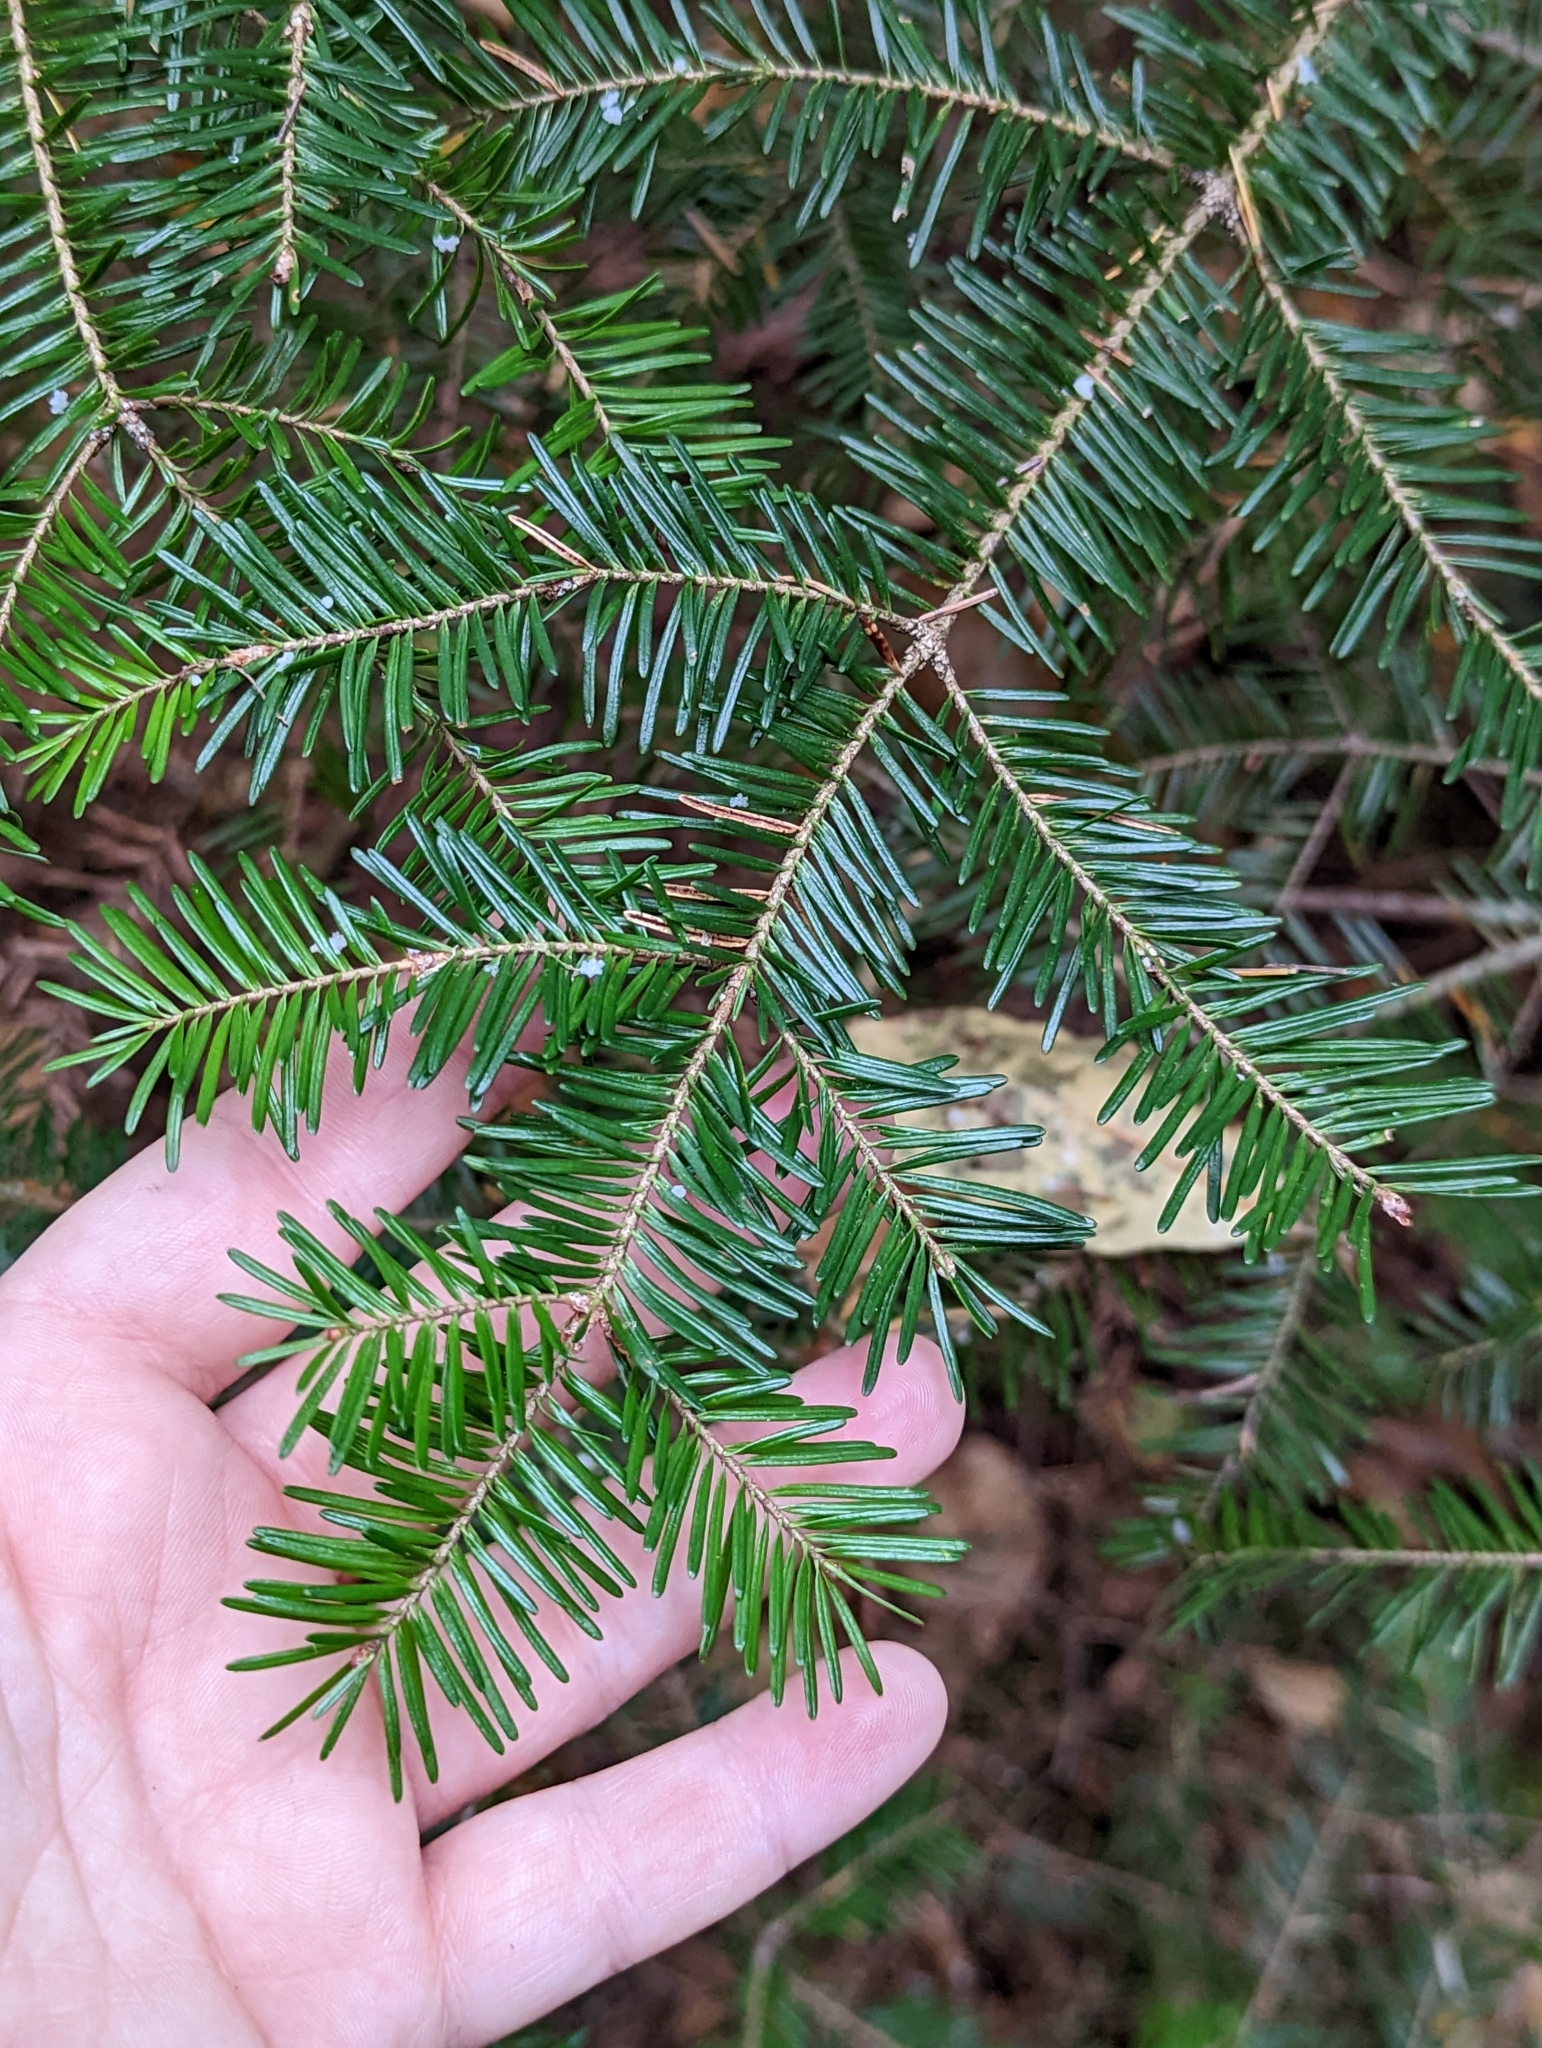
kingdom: Plantae
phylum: Tracheophyta
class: Pinopsida
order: Pinales
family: Pinaceae
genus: Abies
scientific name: Abies balsamea
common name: Balsam fir
